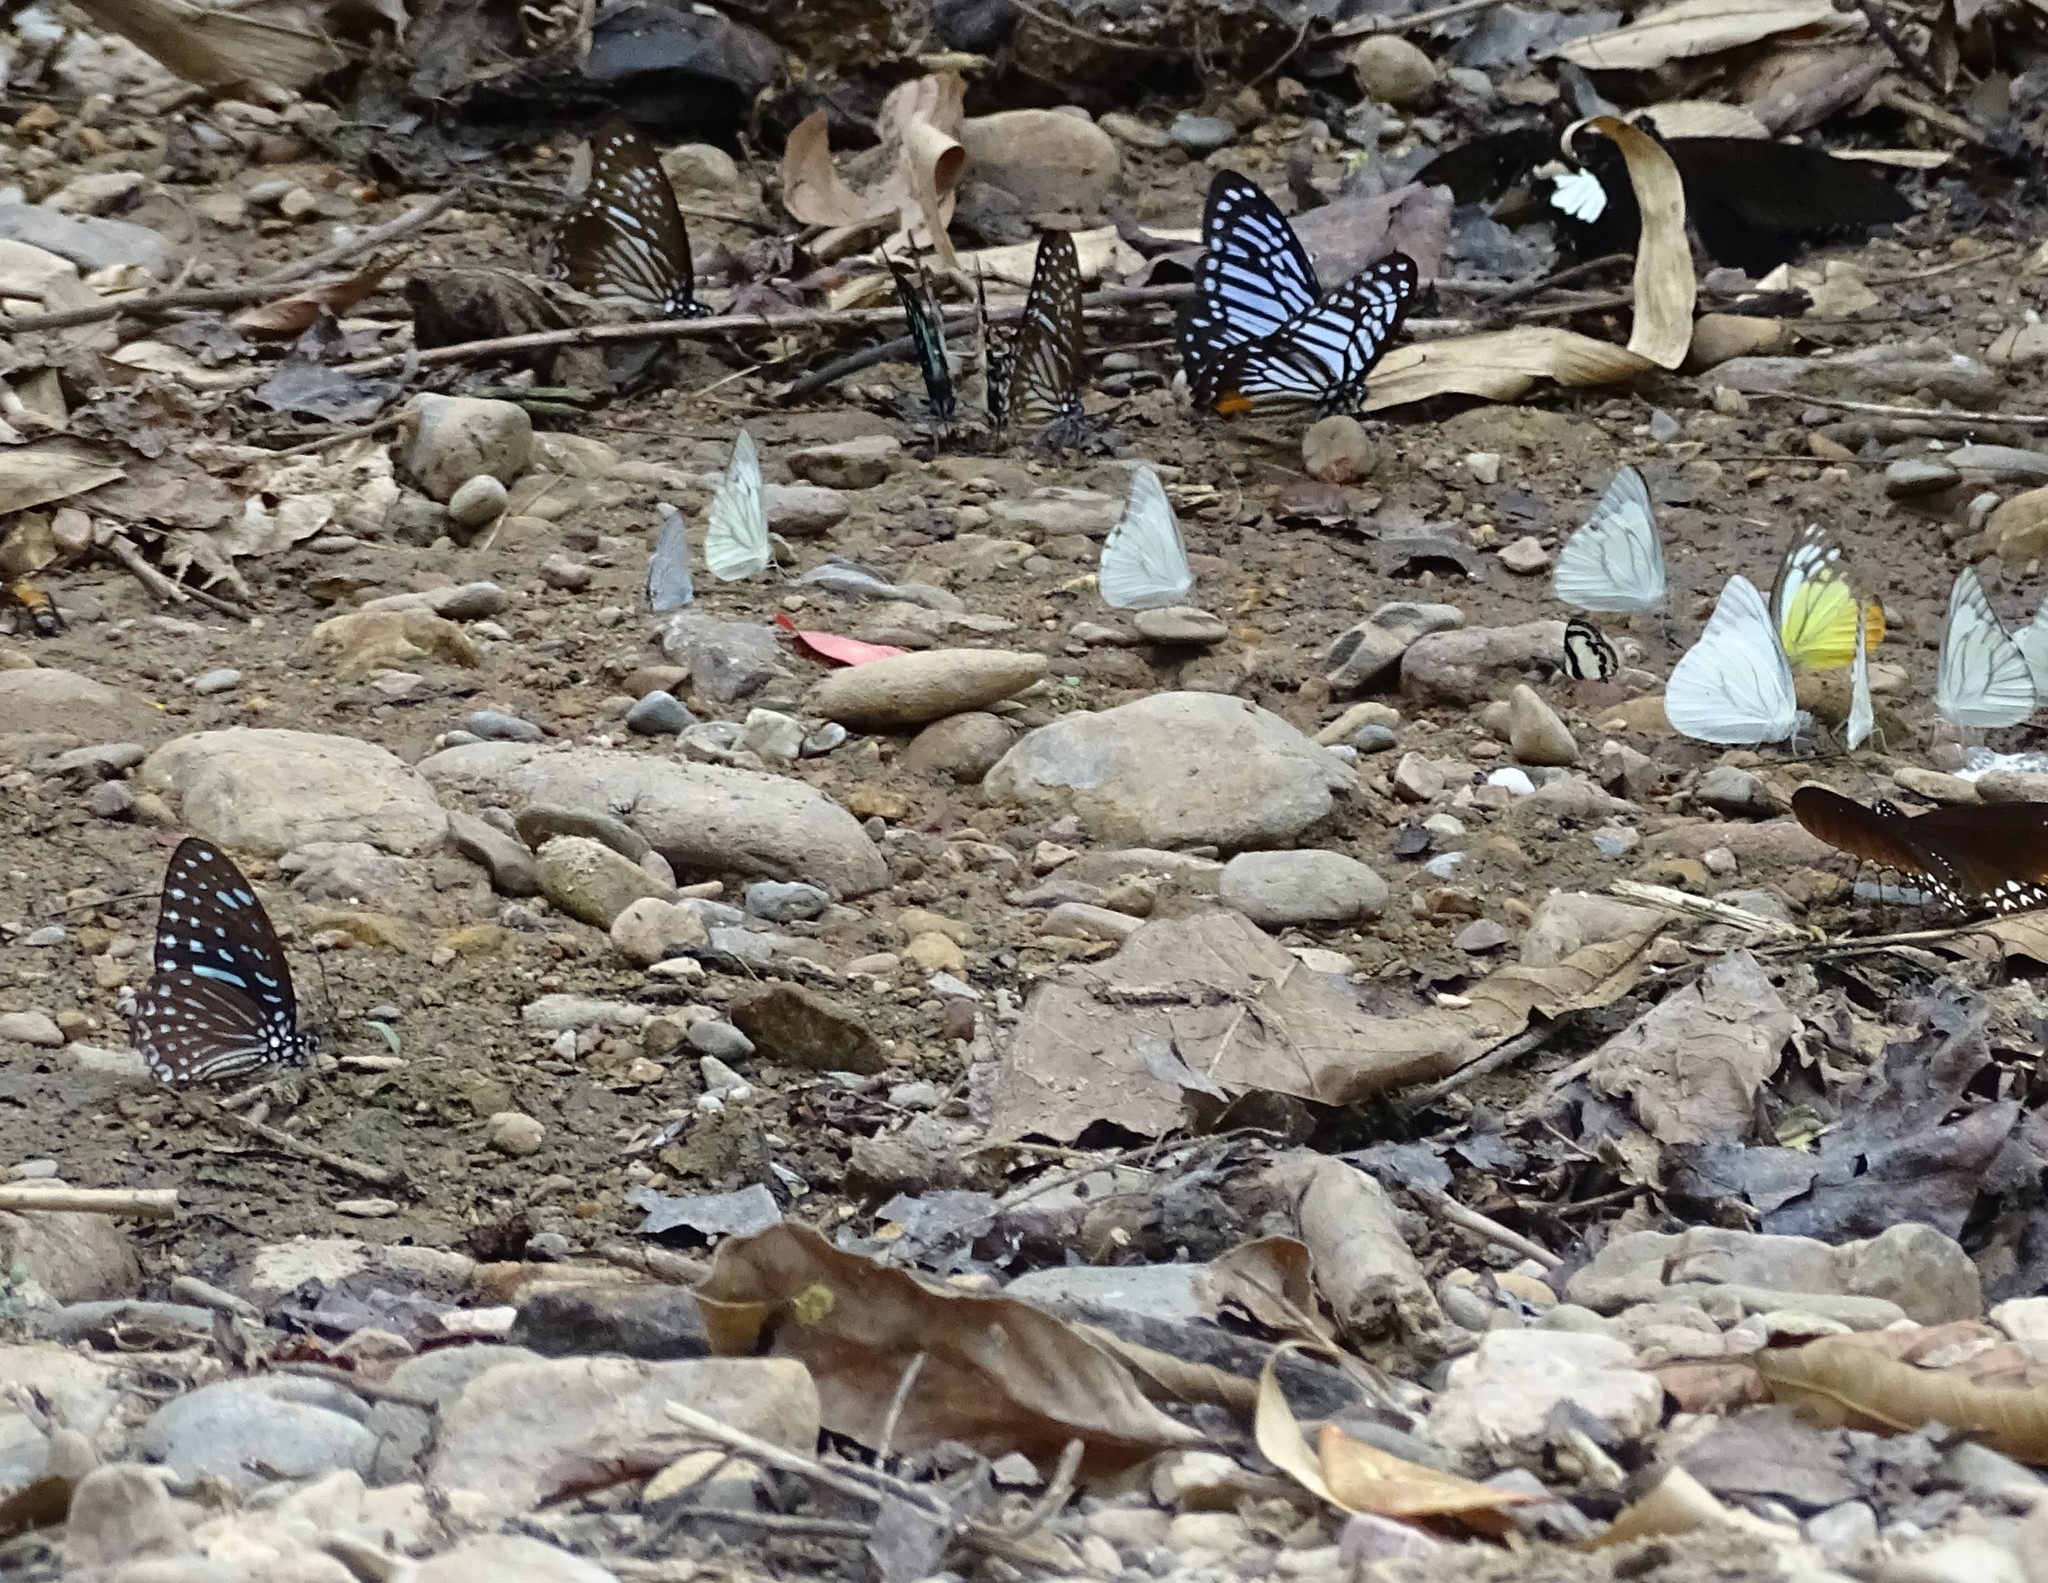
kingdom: Animalia
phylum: Arthropoda
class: Insecta
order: Lepidoptera
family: Papilionidae
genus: Graphium
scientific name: Graphium megarus
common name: Spotted zebra
